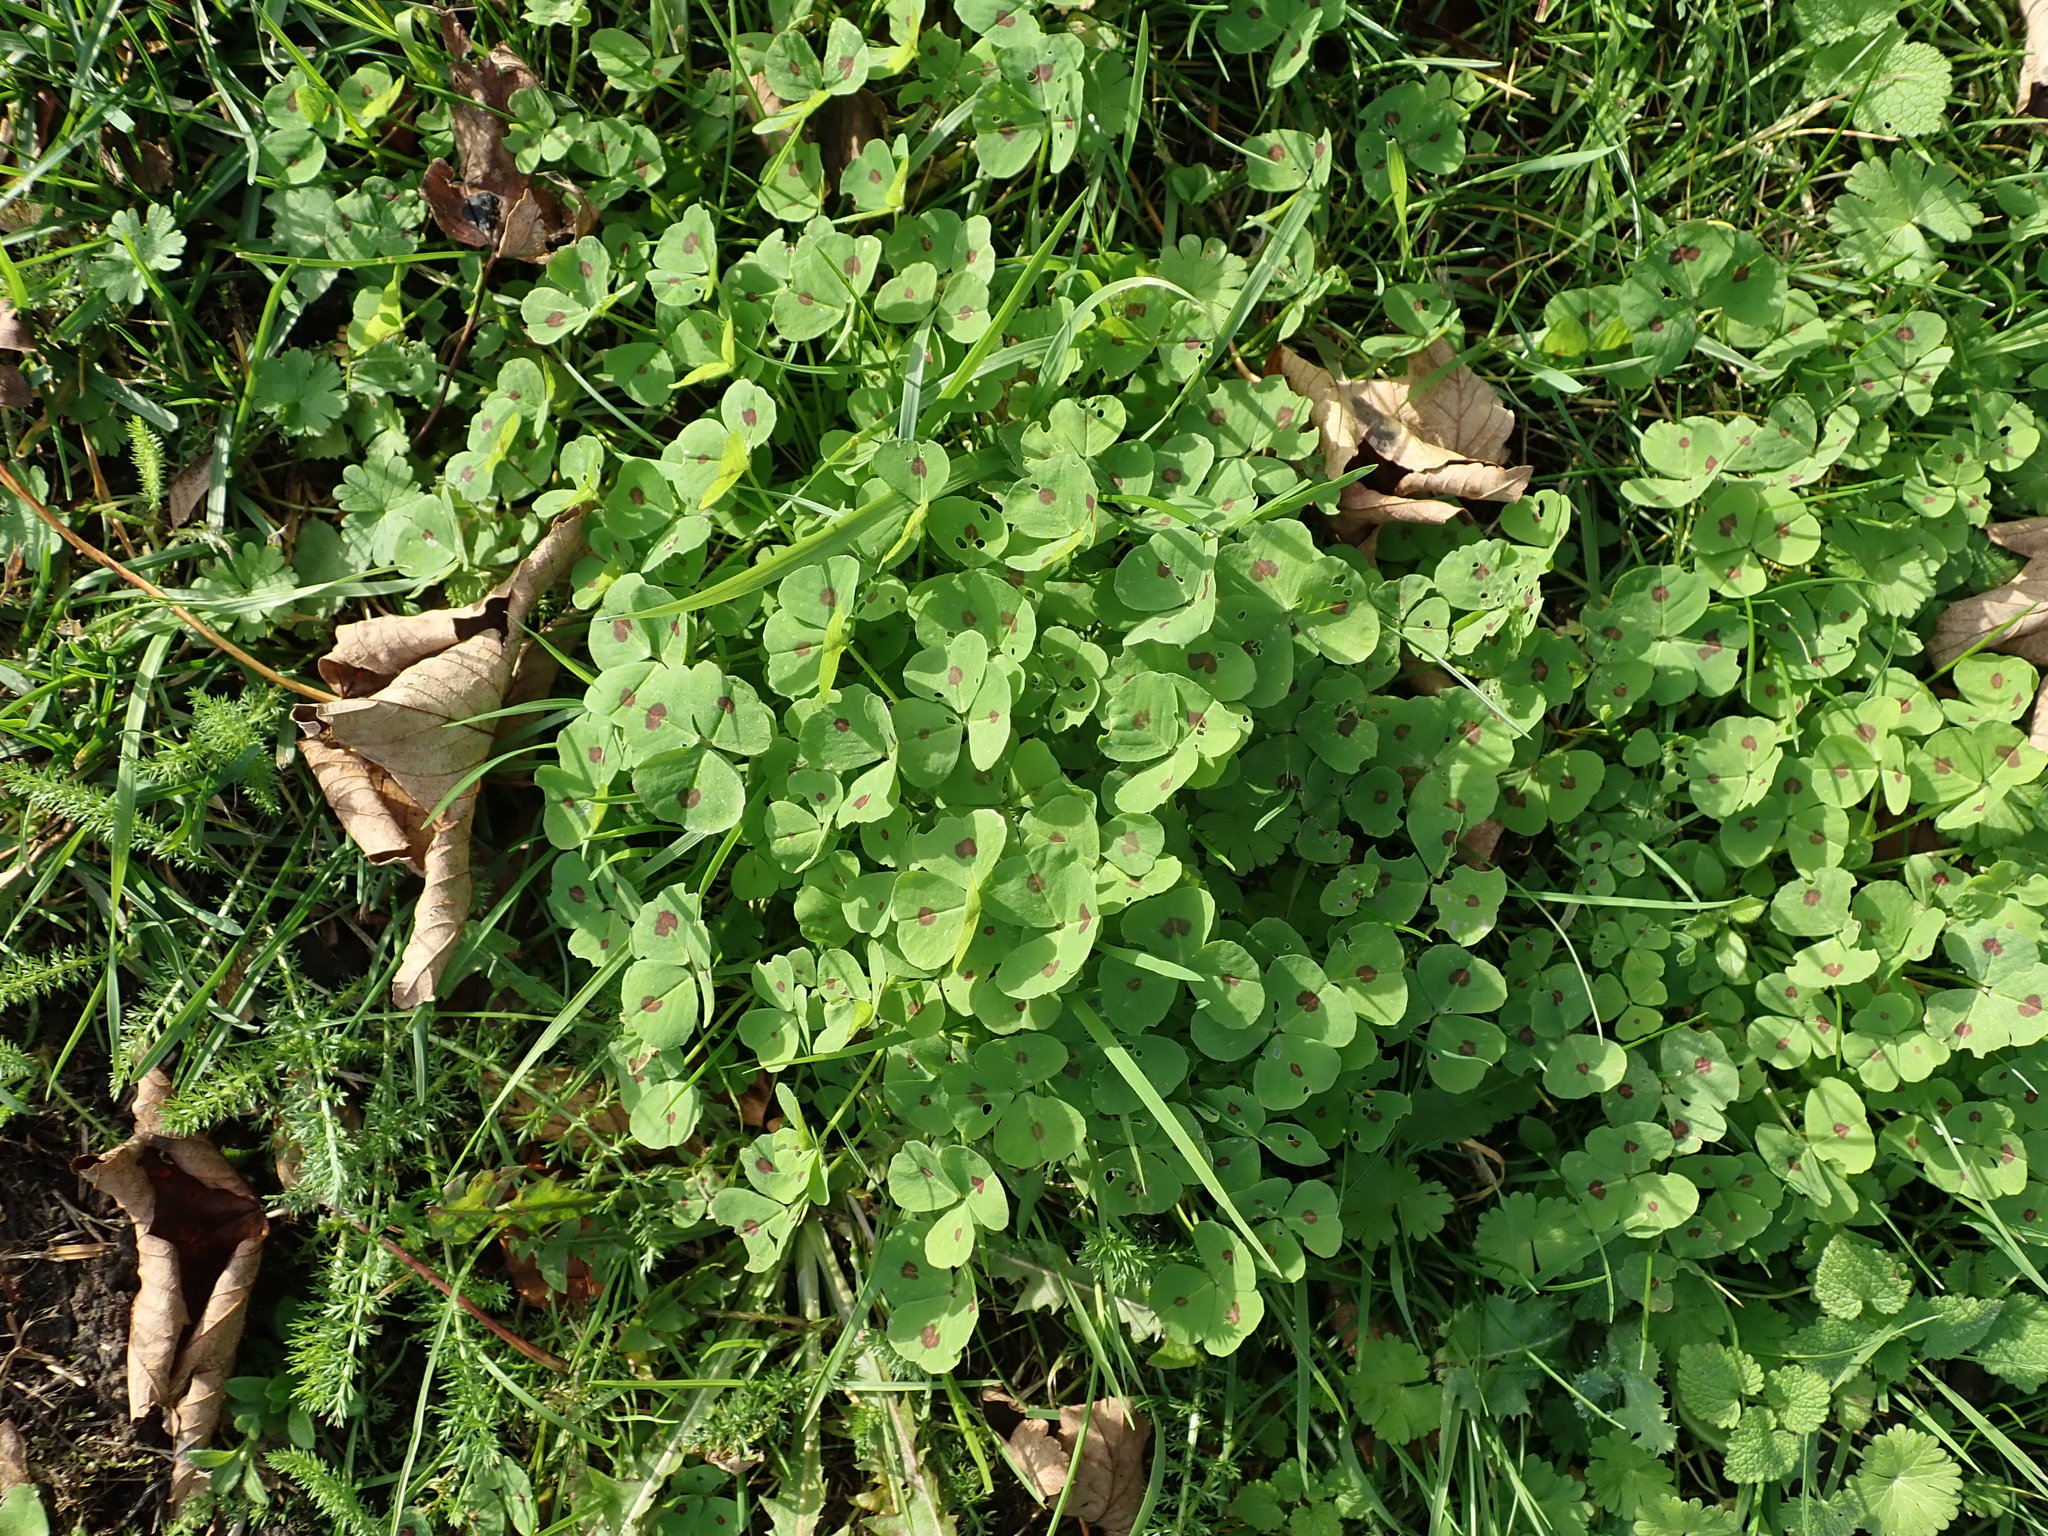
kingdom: Plantae
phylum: Tracheophyta
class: Magnoliopsida
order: Fabales
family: Fabaceae
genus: Medicago
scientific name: Medicago arabica
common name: Spotted medick
